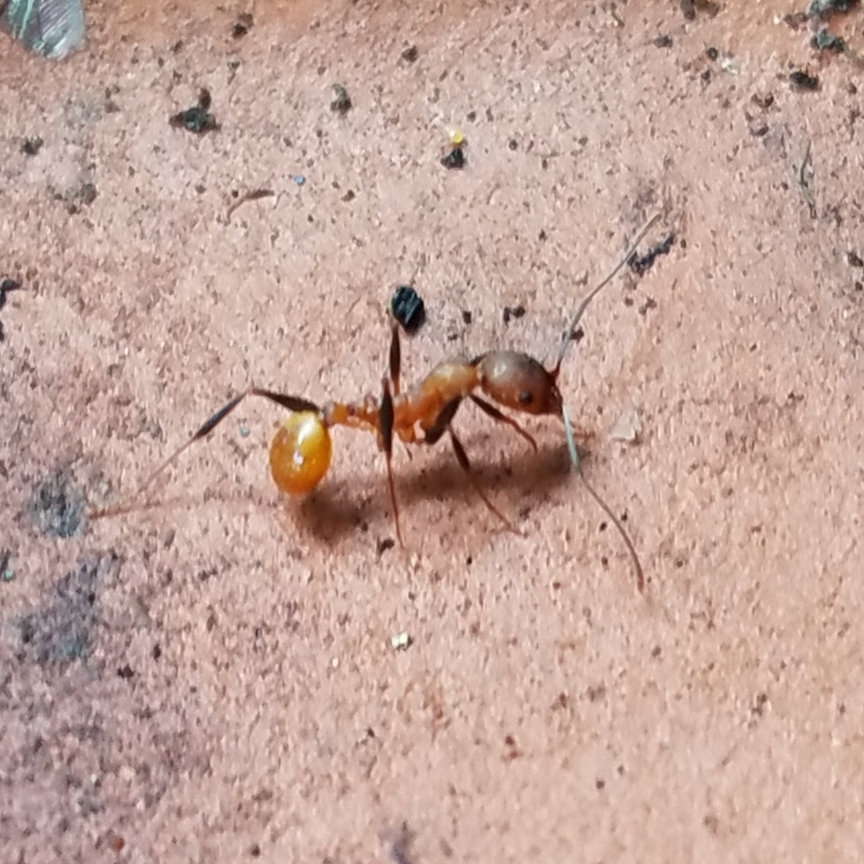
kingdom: Animalia
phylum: Arthropoda
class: Insecta
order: Hymenoptera
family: Formicidae
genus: Aphaenogaster
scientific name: Aphaenogaster lamellidens
